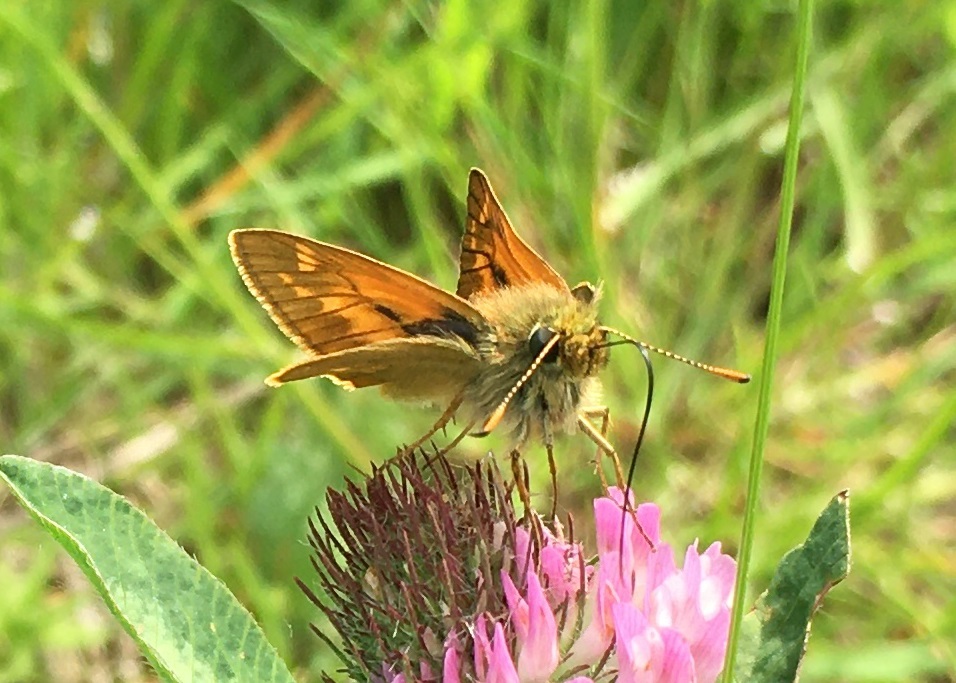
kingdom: Animalia
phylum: Arthropoda
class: Insecta
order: Lepidoptera
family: Hesperiidae
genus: Ochlodes
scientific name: Ochlodes venata
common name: Large skipper
